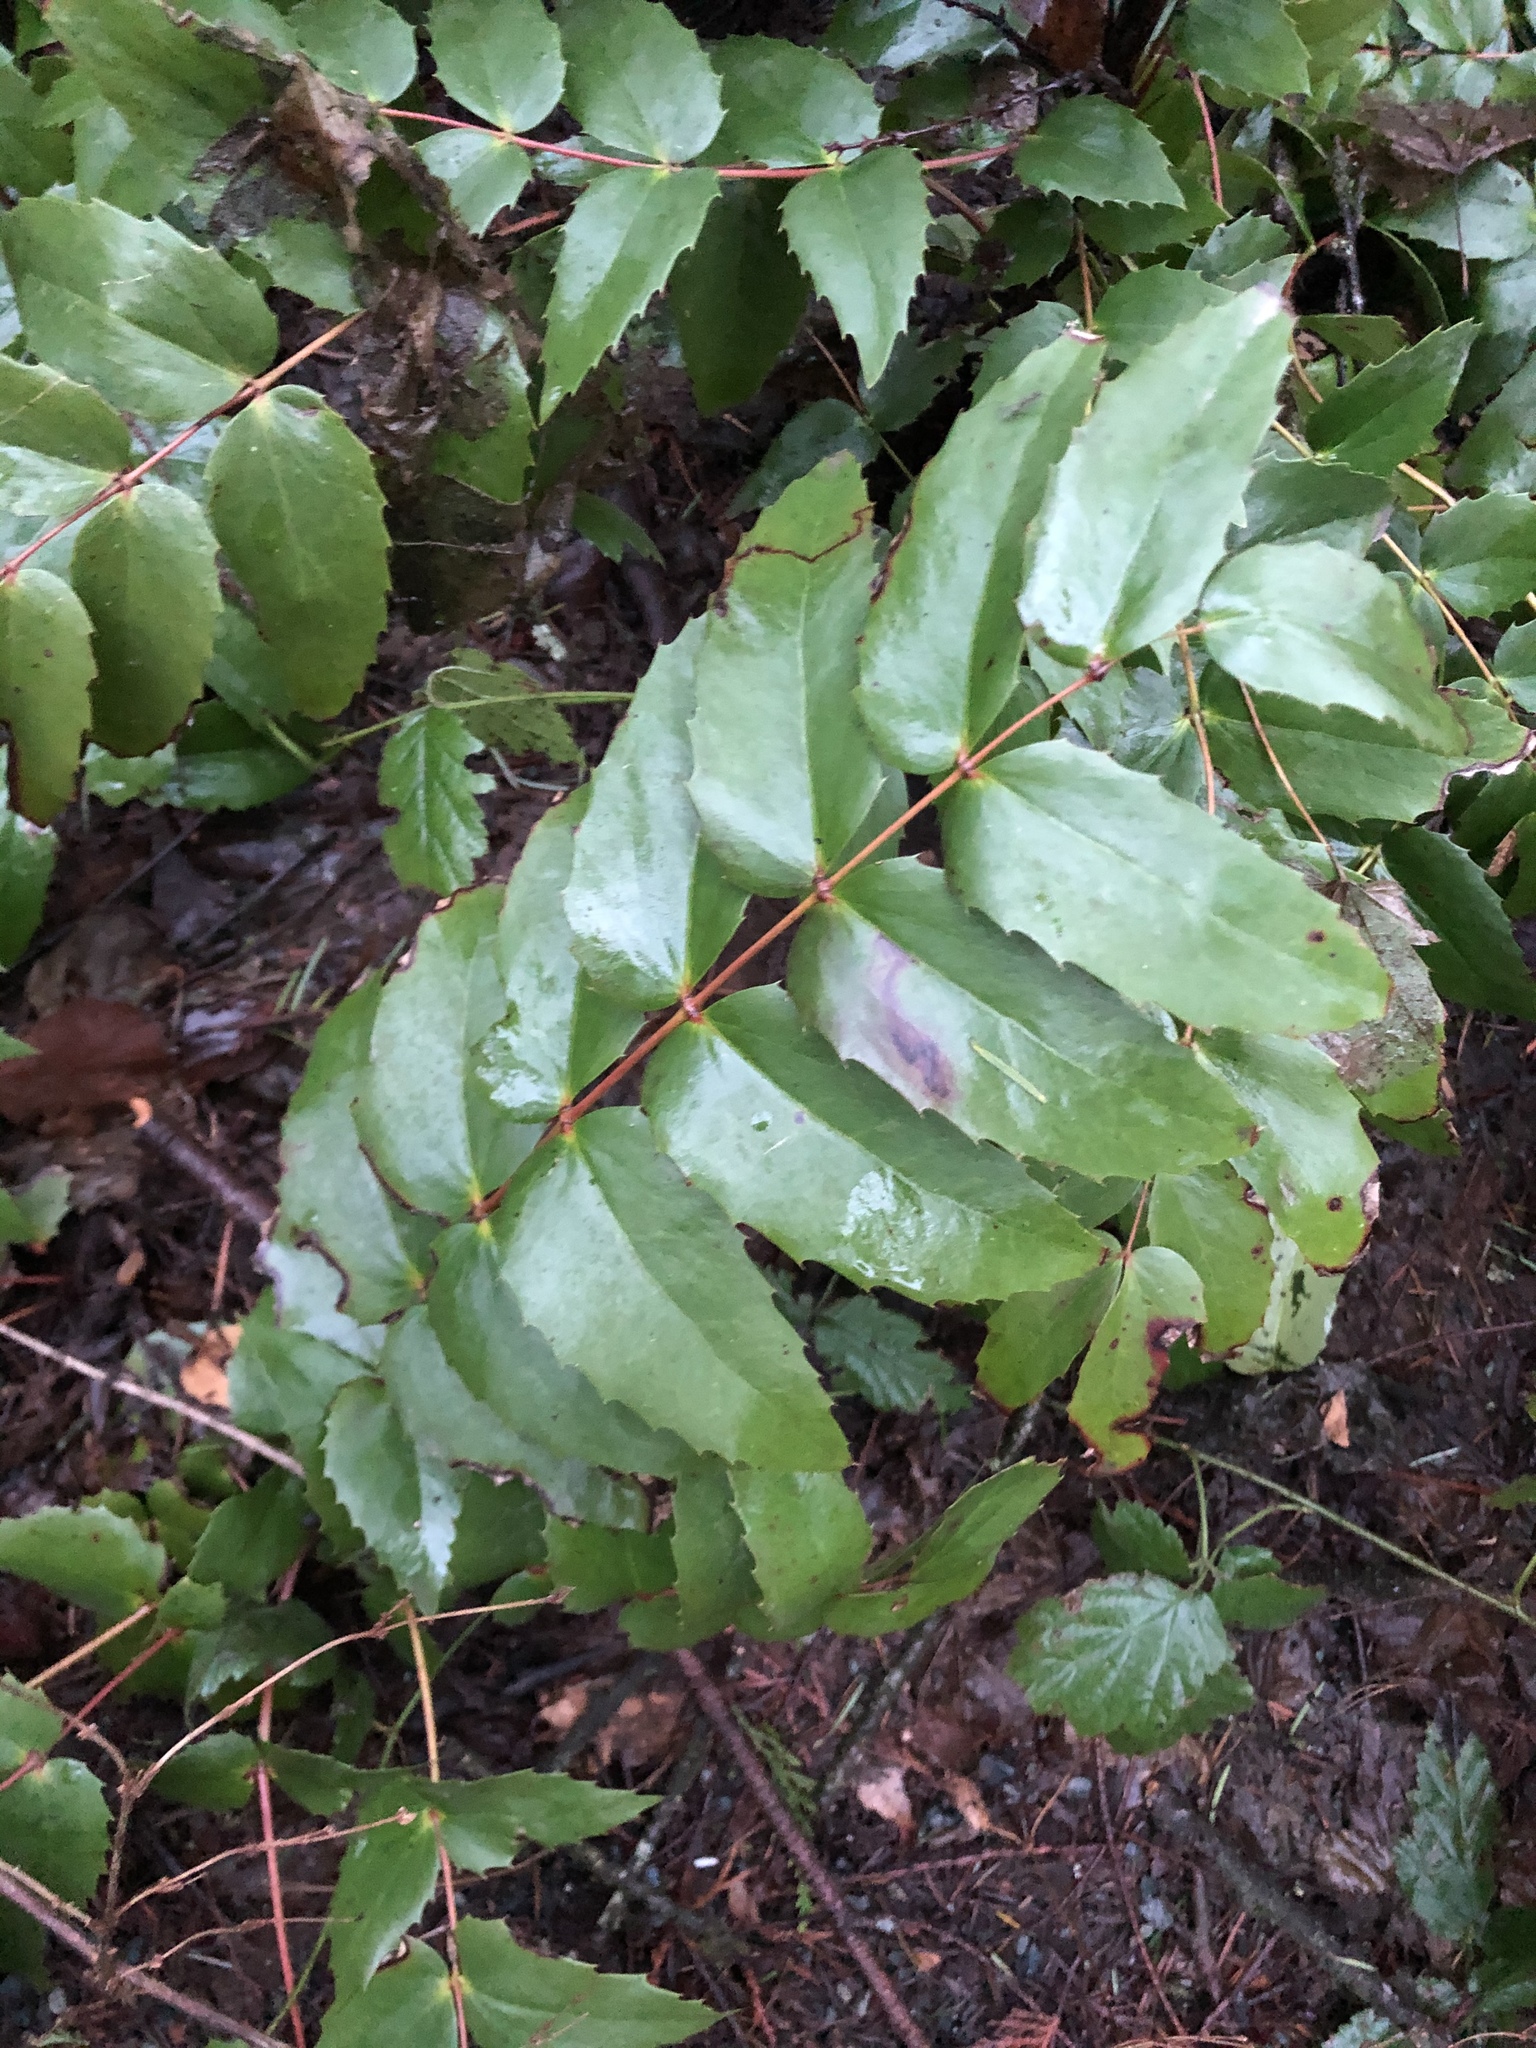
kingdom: Plantae
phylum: Tracheophyta
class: Magnoliopsida
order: Ranunculales
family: Berberidaceae
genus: Mahonia
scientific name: Mahonia nervosa
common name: Cascade oregon-grape
